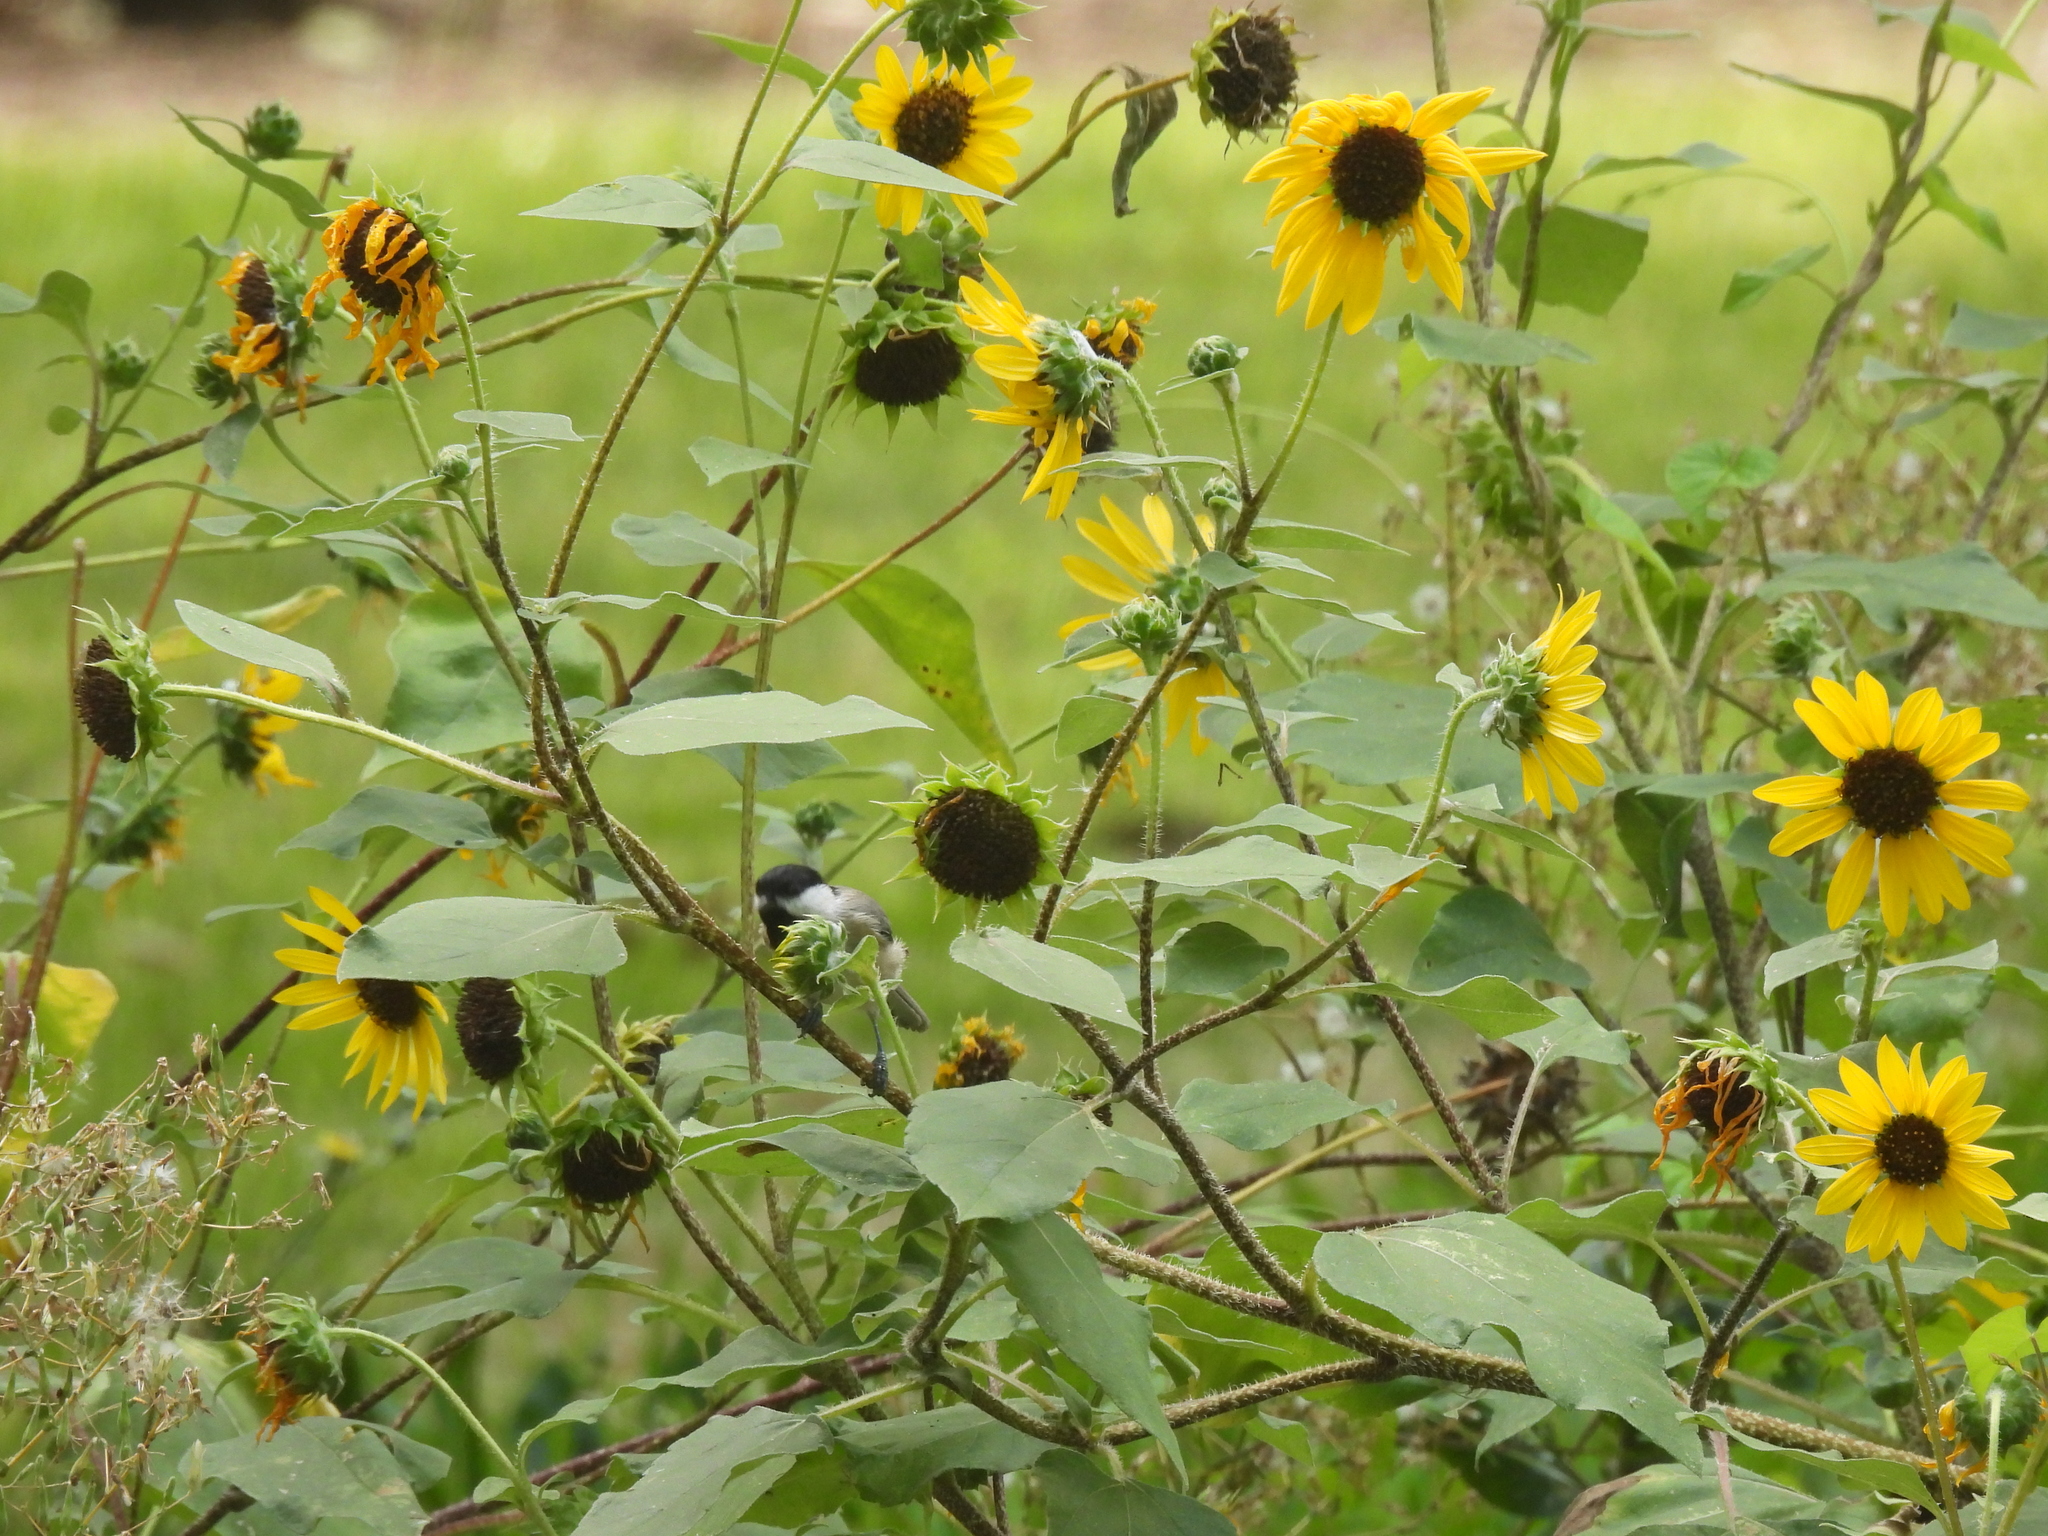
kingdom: Animalia
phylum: Chordata
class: Aves
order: Passeriformes
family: Paridae
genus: Poecile
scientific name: Poecile carolinensis
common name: Carolina chickadee
